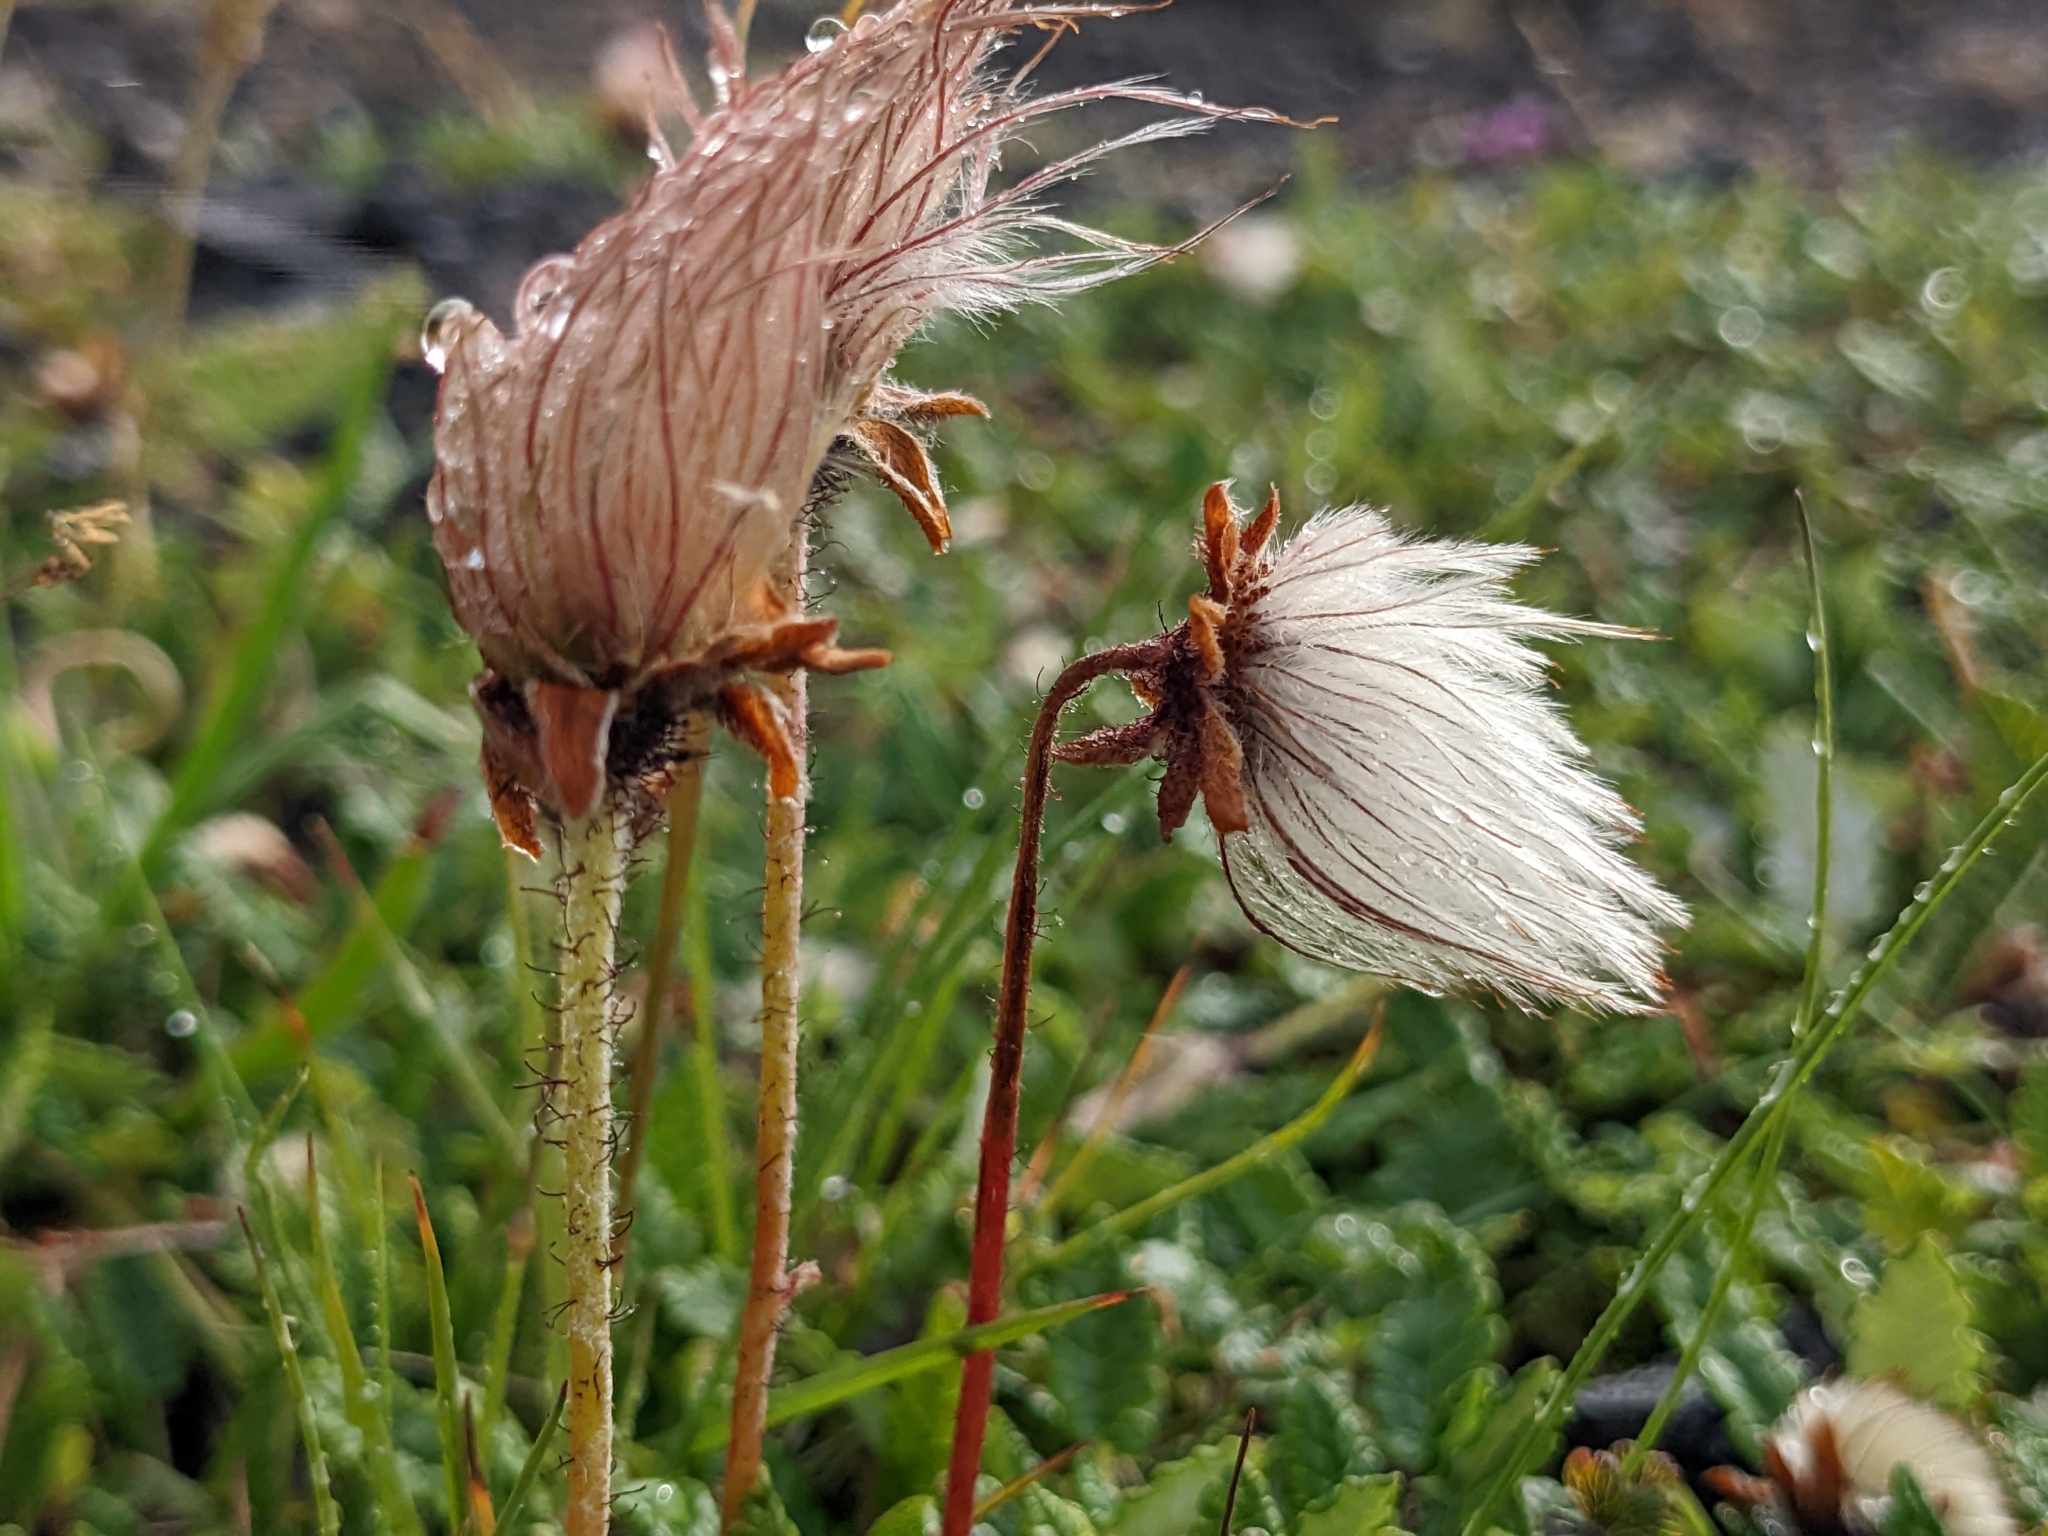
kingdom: Plantae
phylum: Tracheophyta
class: Magnoliopsida
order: Rosales
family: Rosaceae
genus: Dryas
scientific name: Dryas octopetala
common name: Eight-petal mountain-avens
